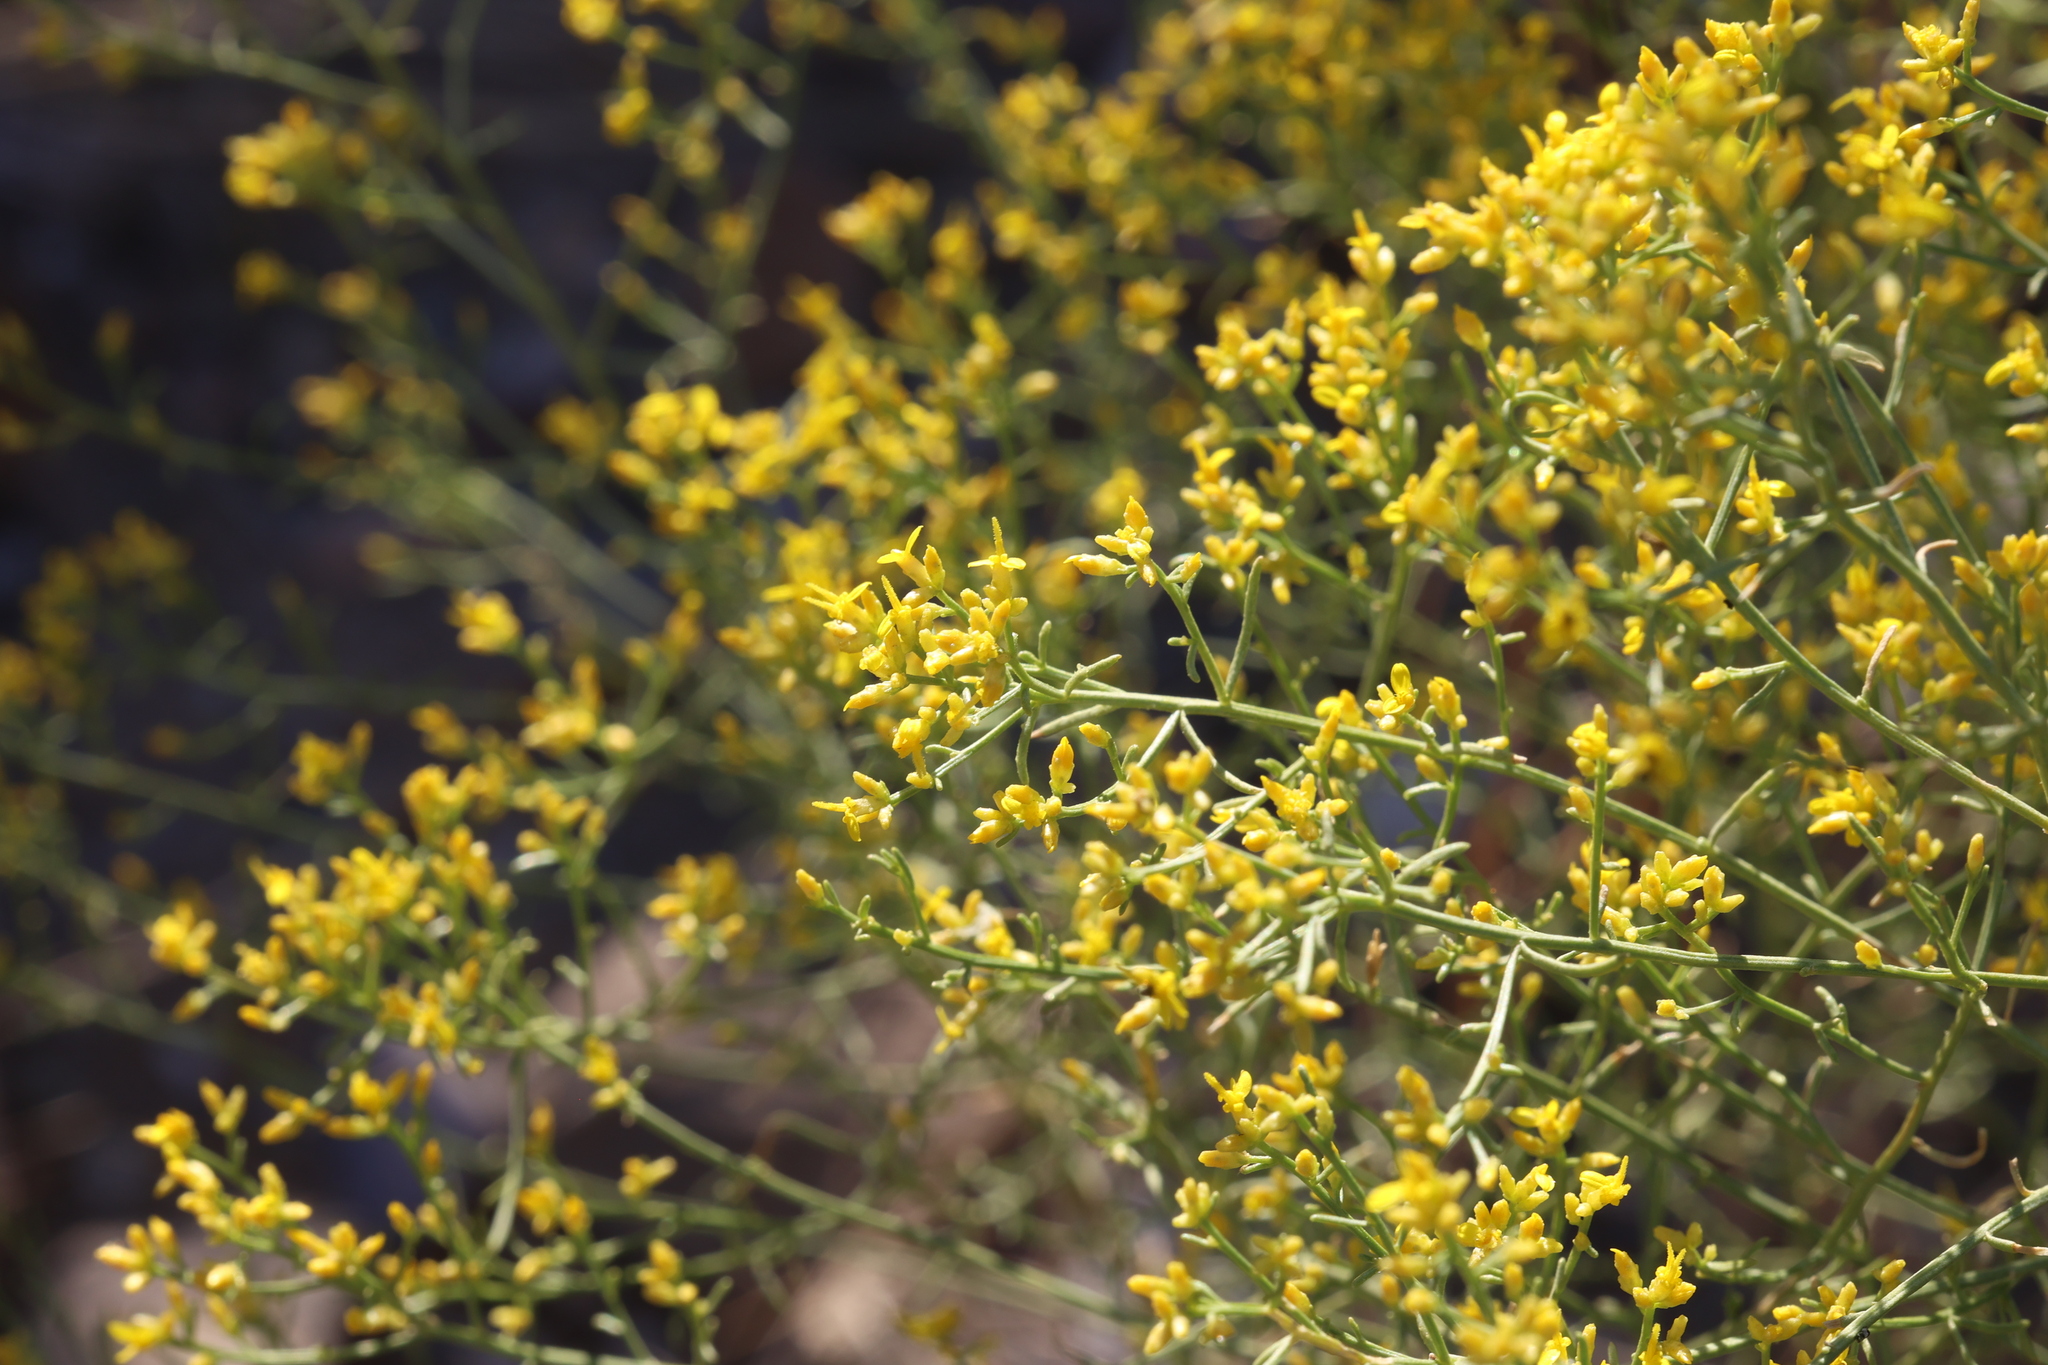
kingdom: Plantae
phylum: Tracheophyta
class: Magnoliopsida
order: Asterales
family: Asteraceae
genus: Gutierrezia
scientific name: Gutierrezia microcephala
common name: Thread snakeweed
